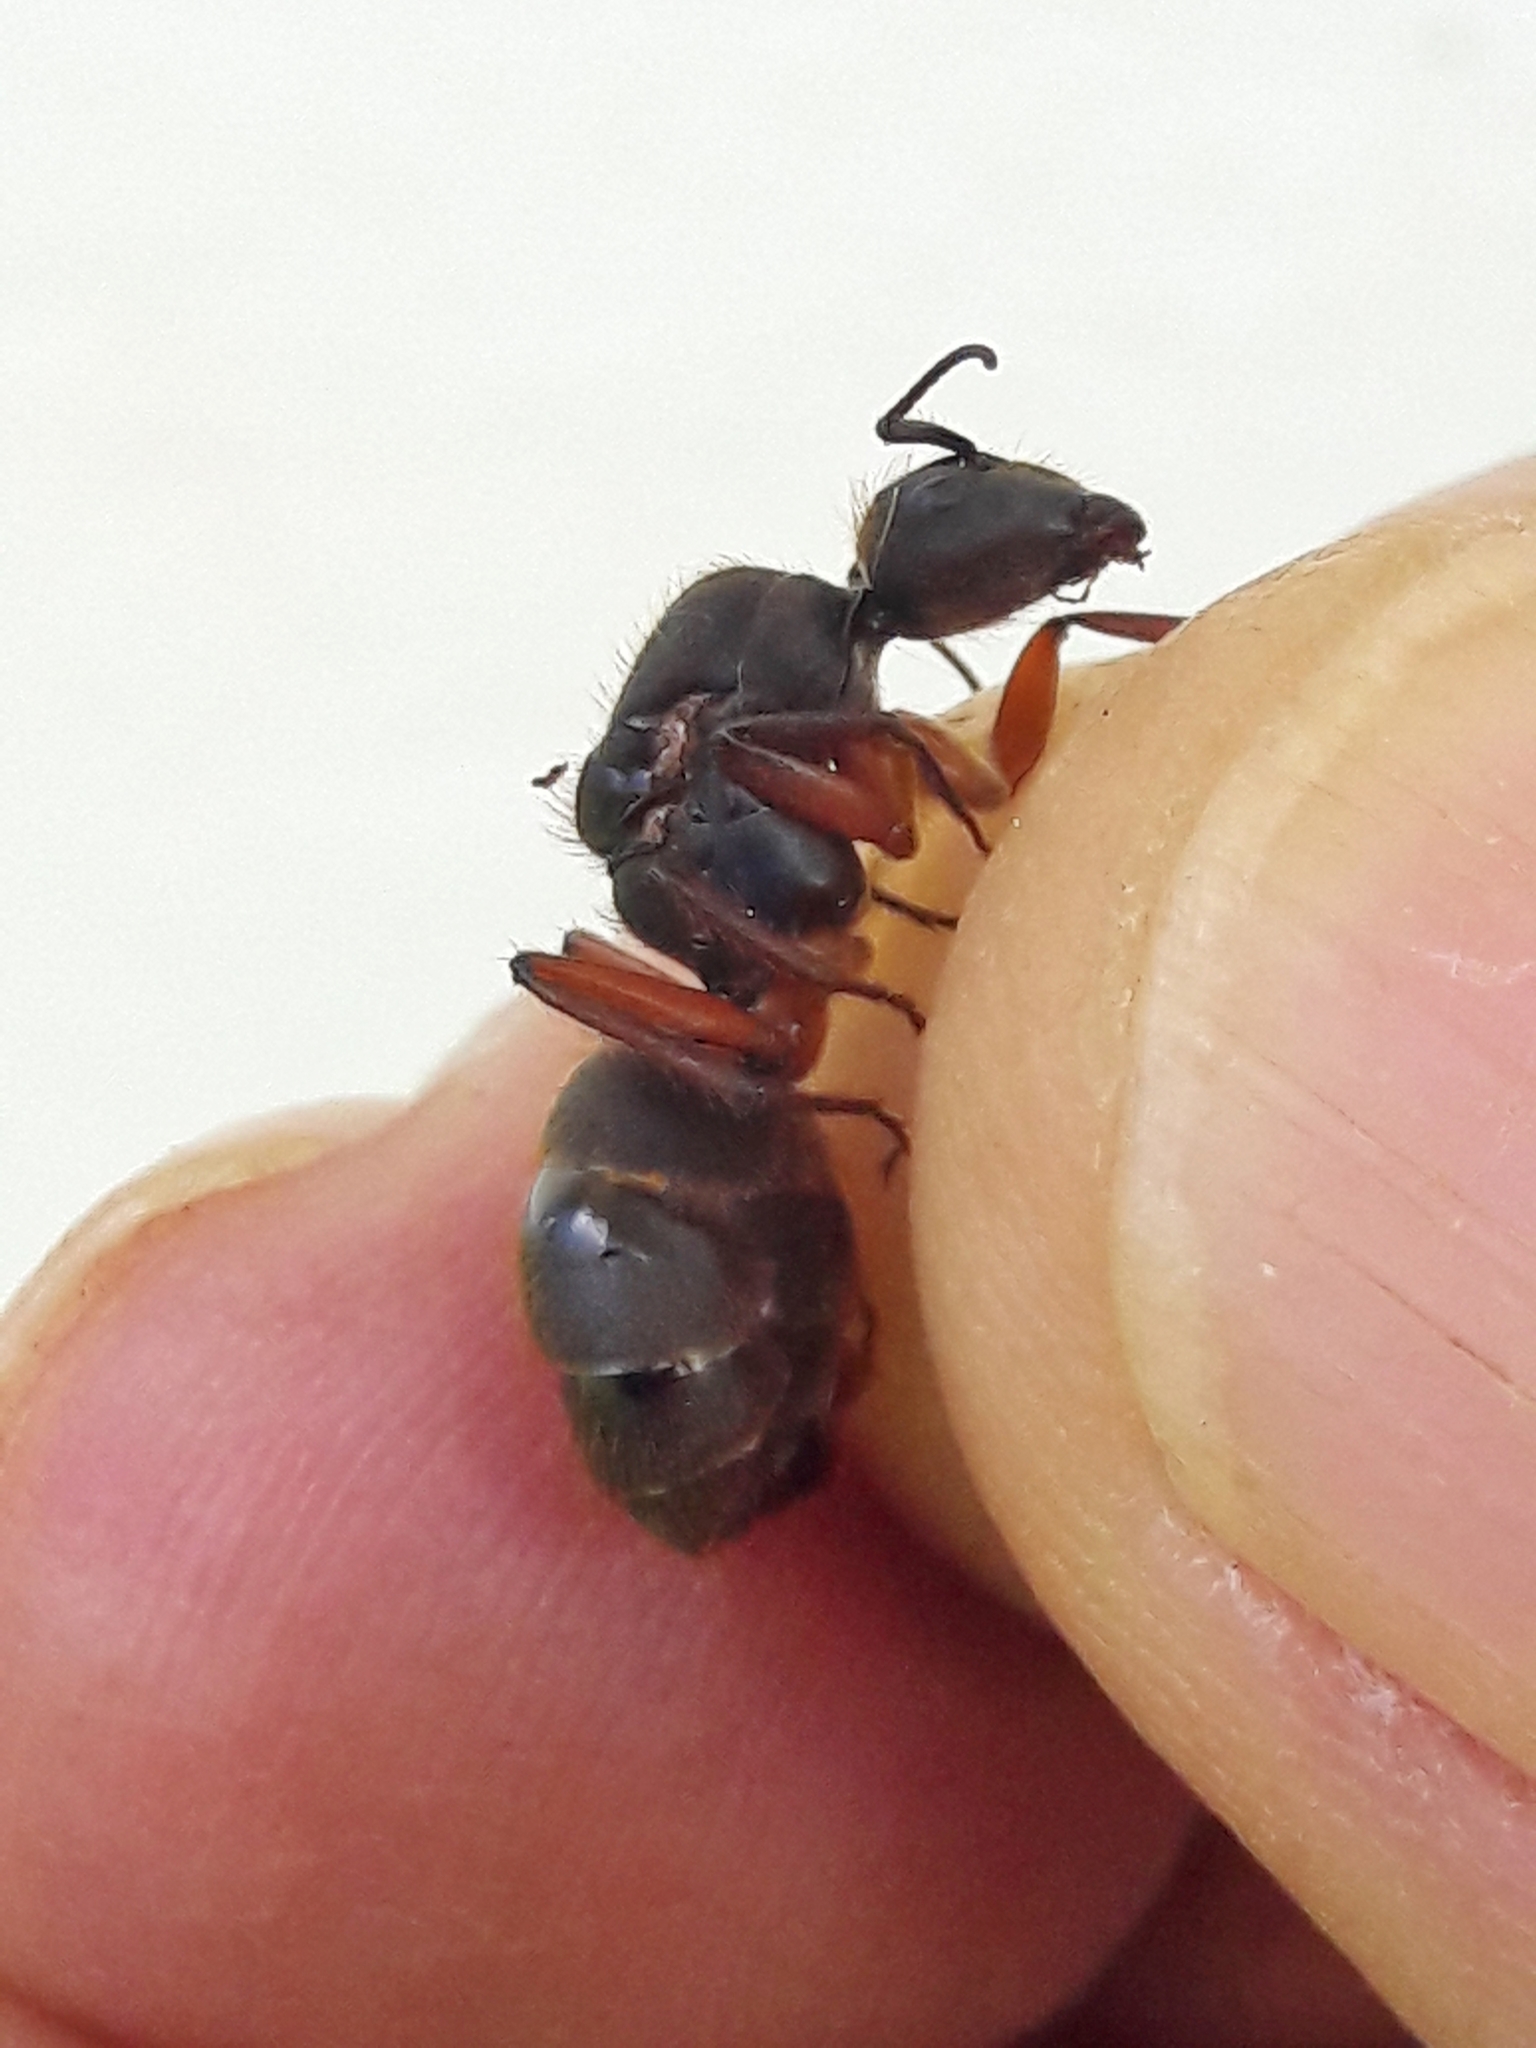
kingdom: Animalia
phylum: Arthropoda
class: Insecta
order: Hymenoptera
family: Formicidae
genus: Camponotus
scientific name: Camponotus rufipes
